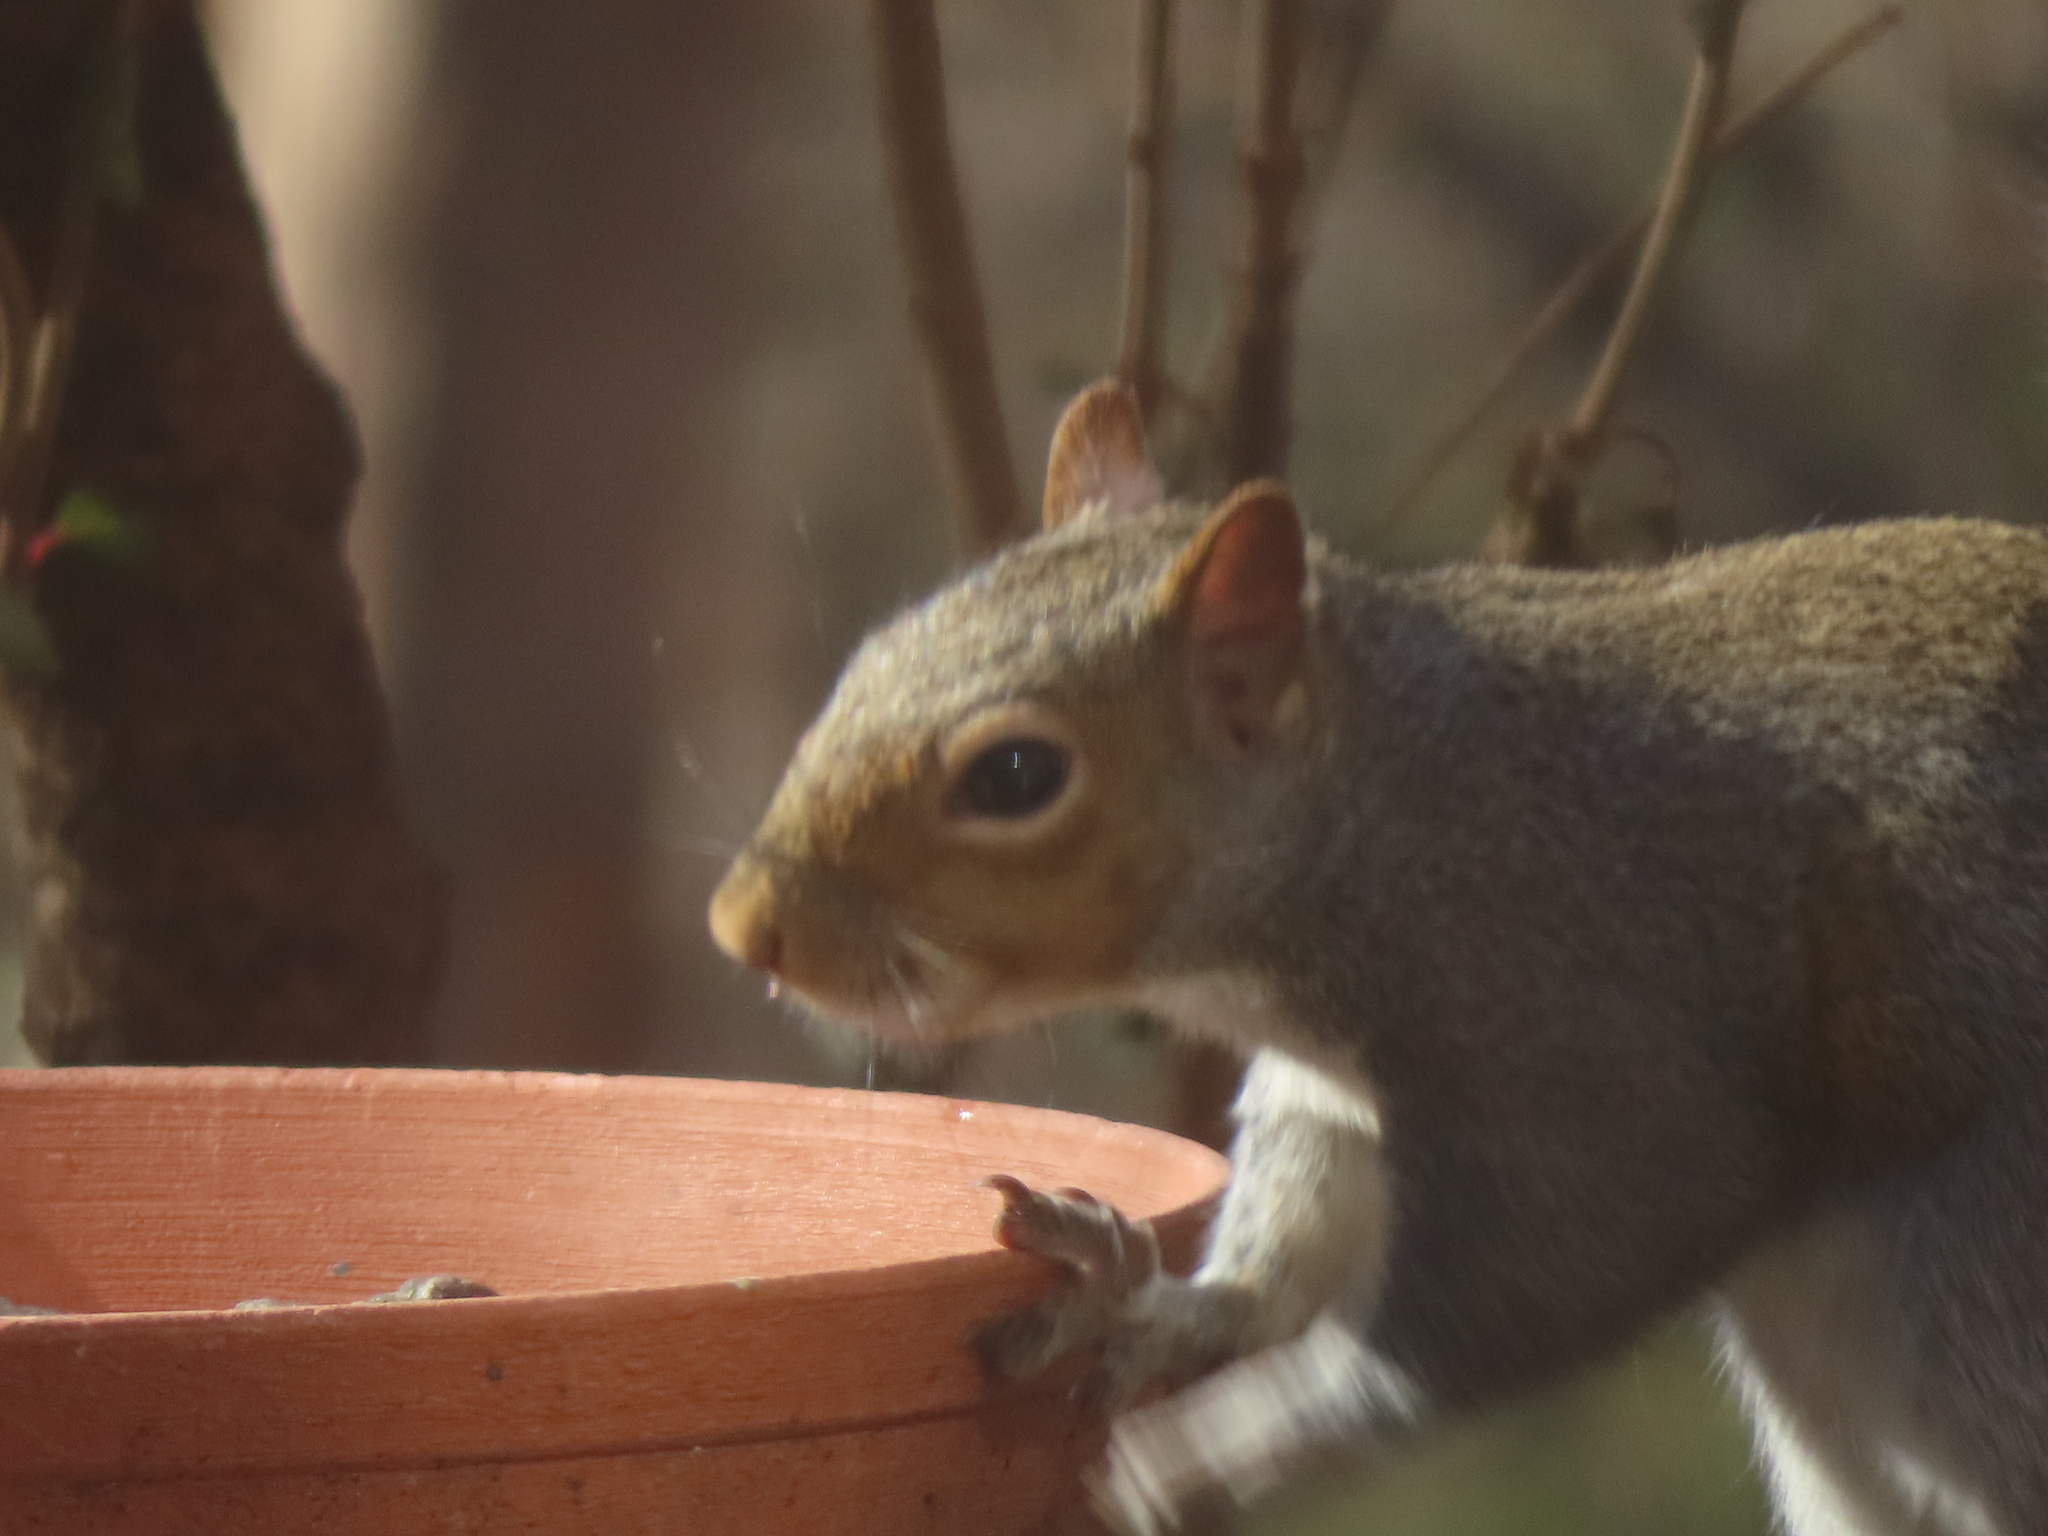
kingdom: Animalia
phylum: Chordata
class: Mammalia
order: Rodentia
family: Sciuridae
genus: Sciurus
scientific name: Sciurus carolinensis
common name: Eastern gray squirrel
